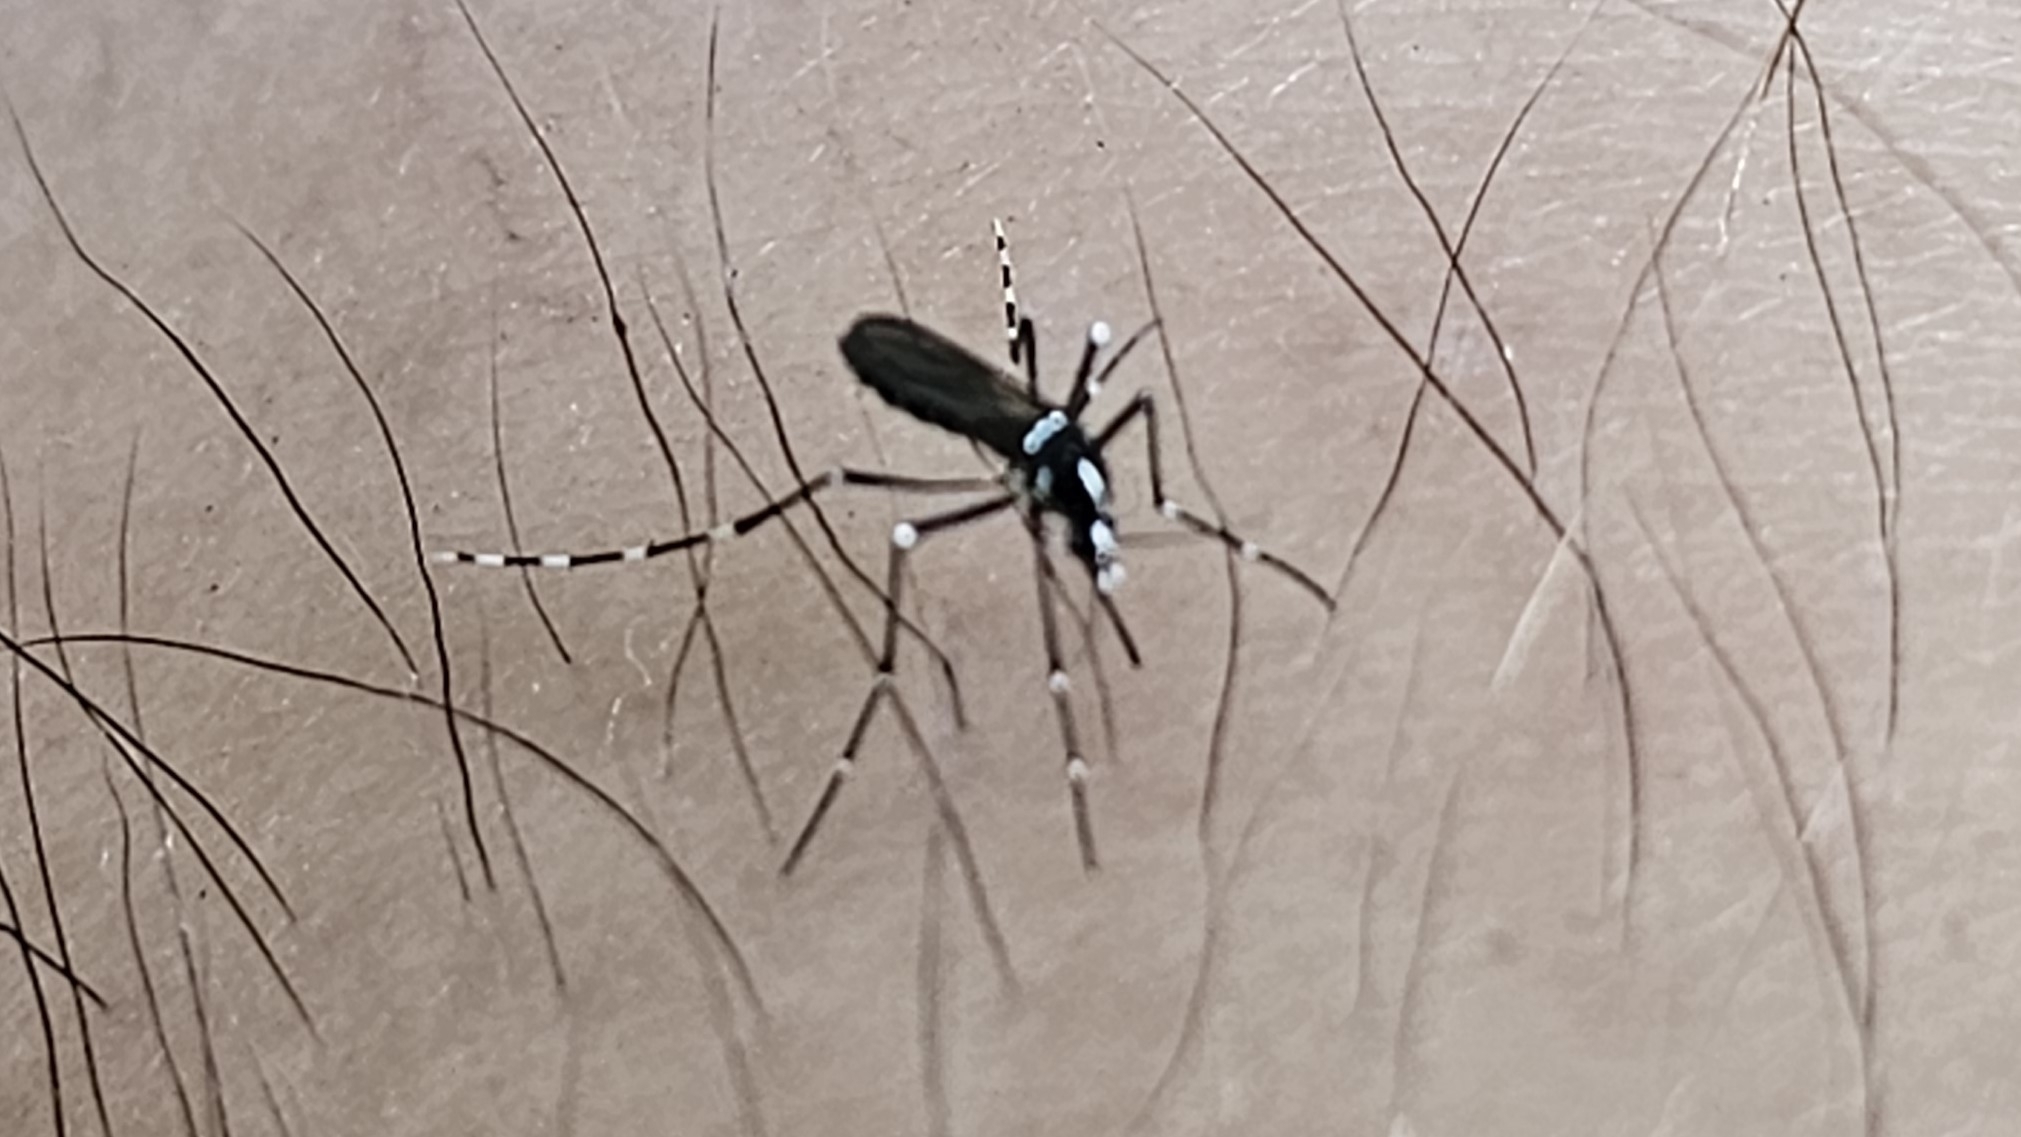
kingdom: Animalia
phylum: Arthropoda
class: Insecta
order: Diptera
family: Culicidae
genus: Aedes
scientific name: Aedes albopictus
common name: Tiger mosquito
